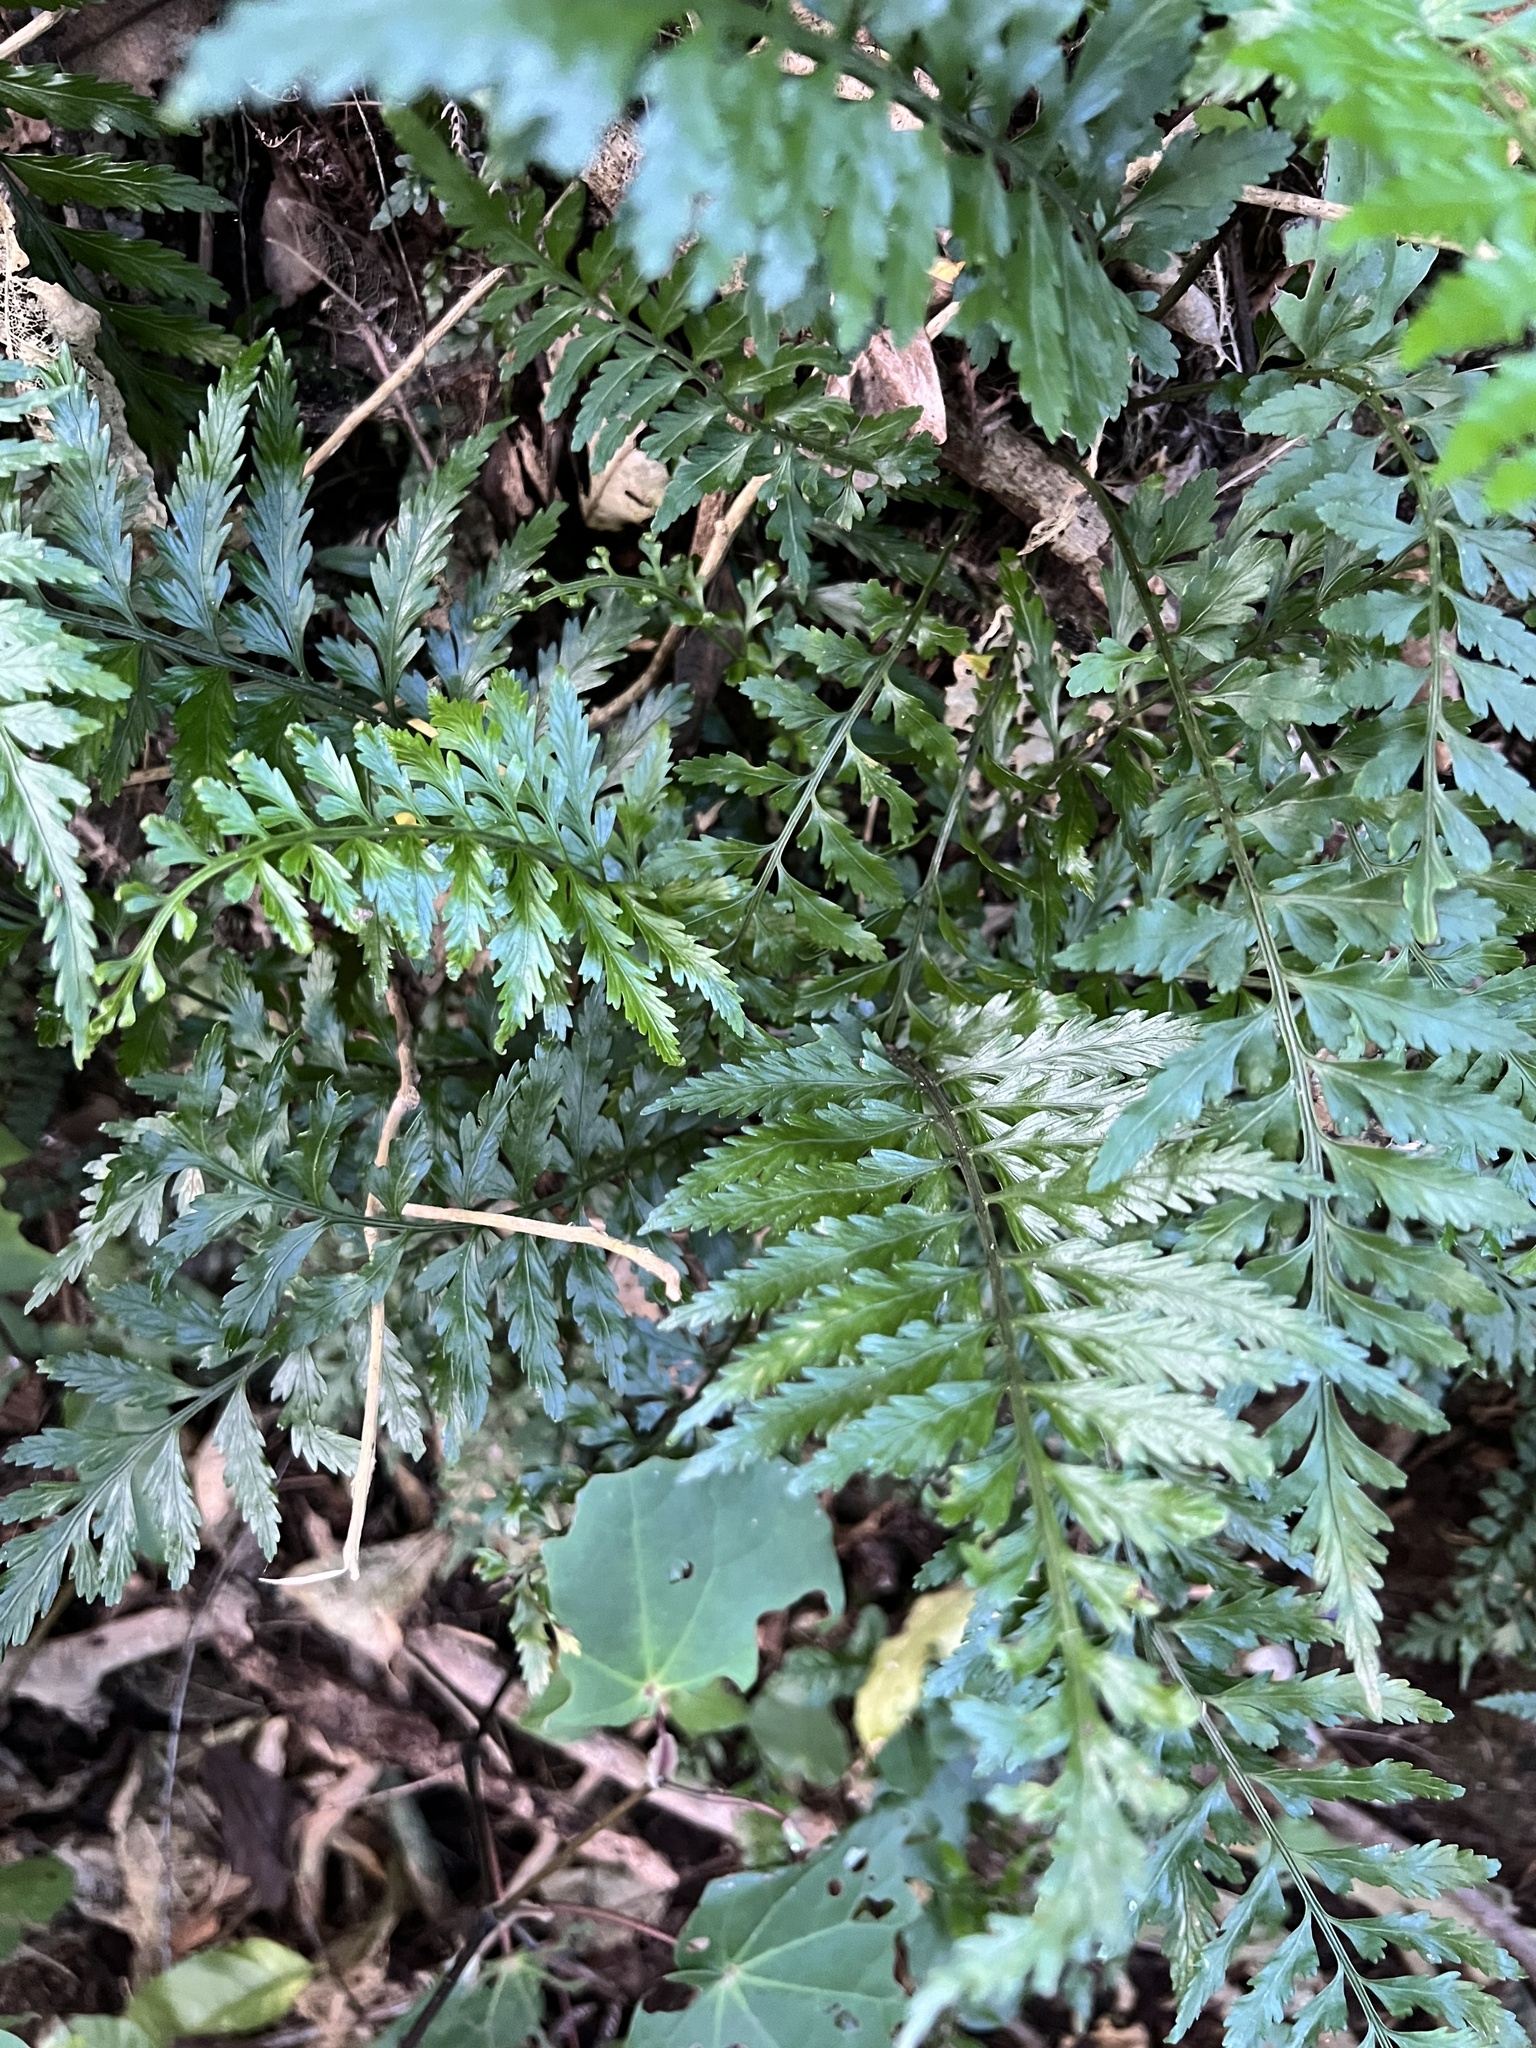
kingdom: Plantae
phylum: Tracheophyta
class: Polypodiopsida
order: Polypodiales
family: Aspleniaceae
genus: Asplenium
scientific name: Asplenium lamprophyllum
